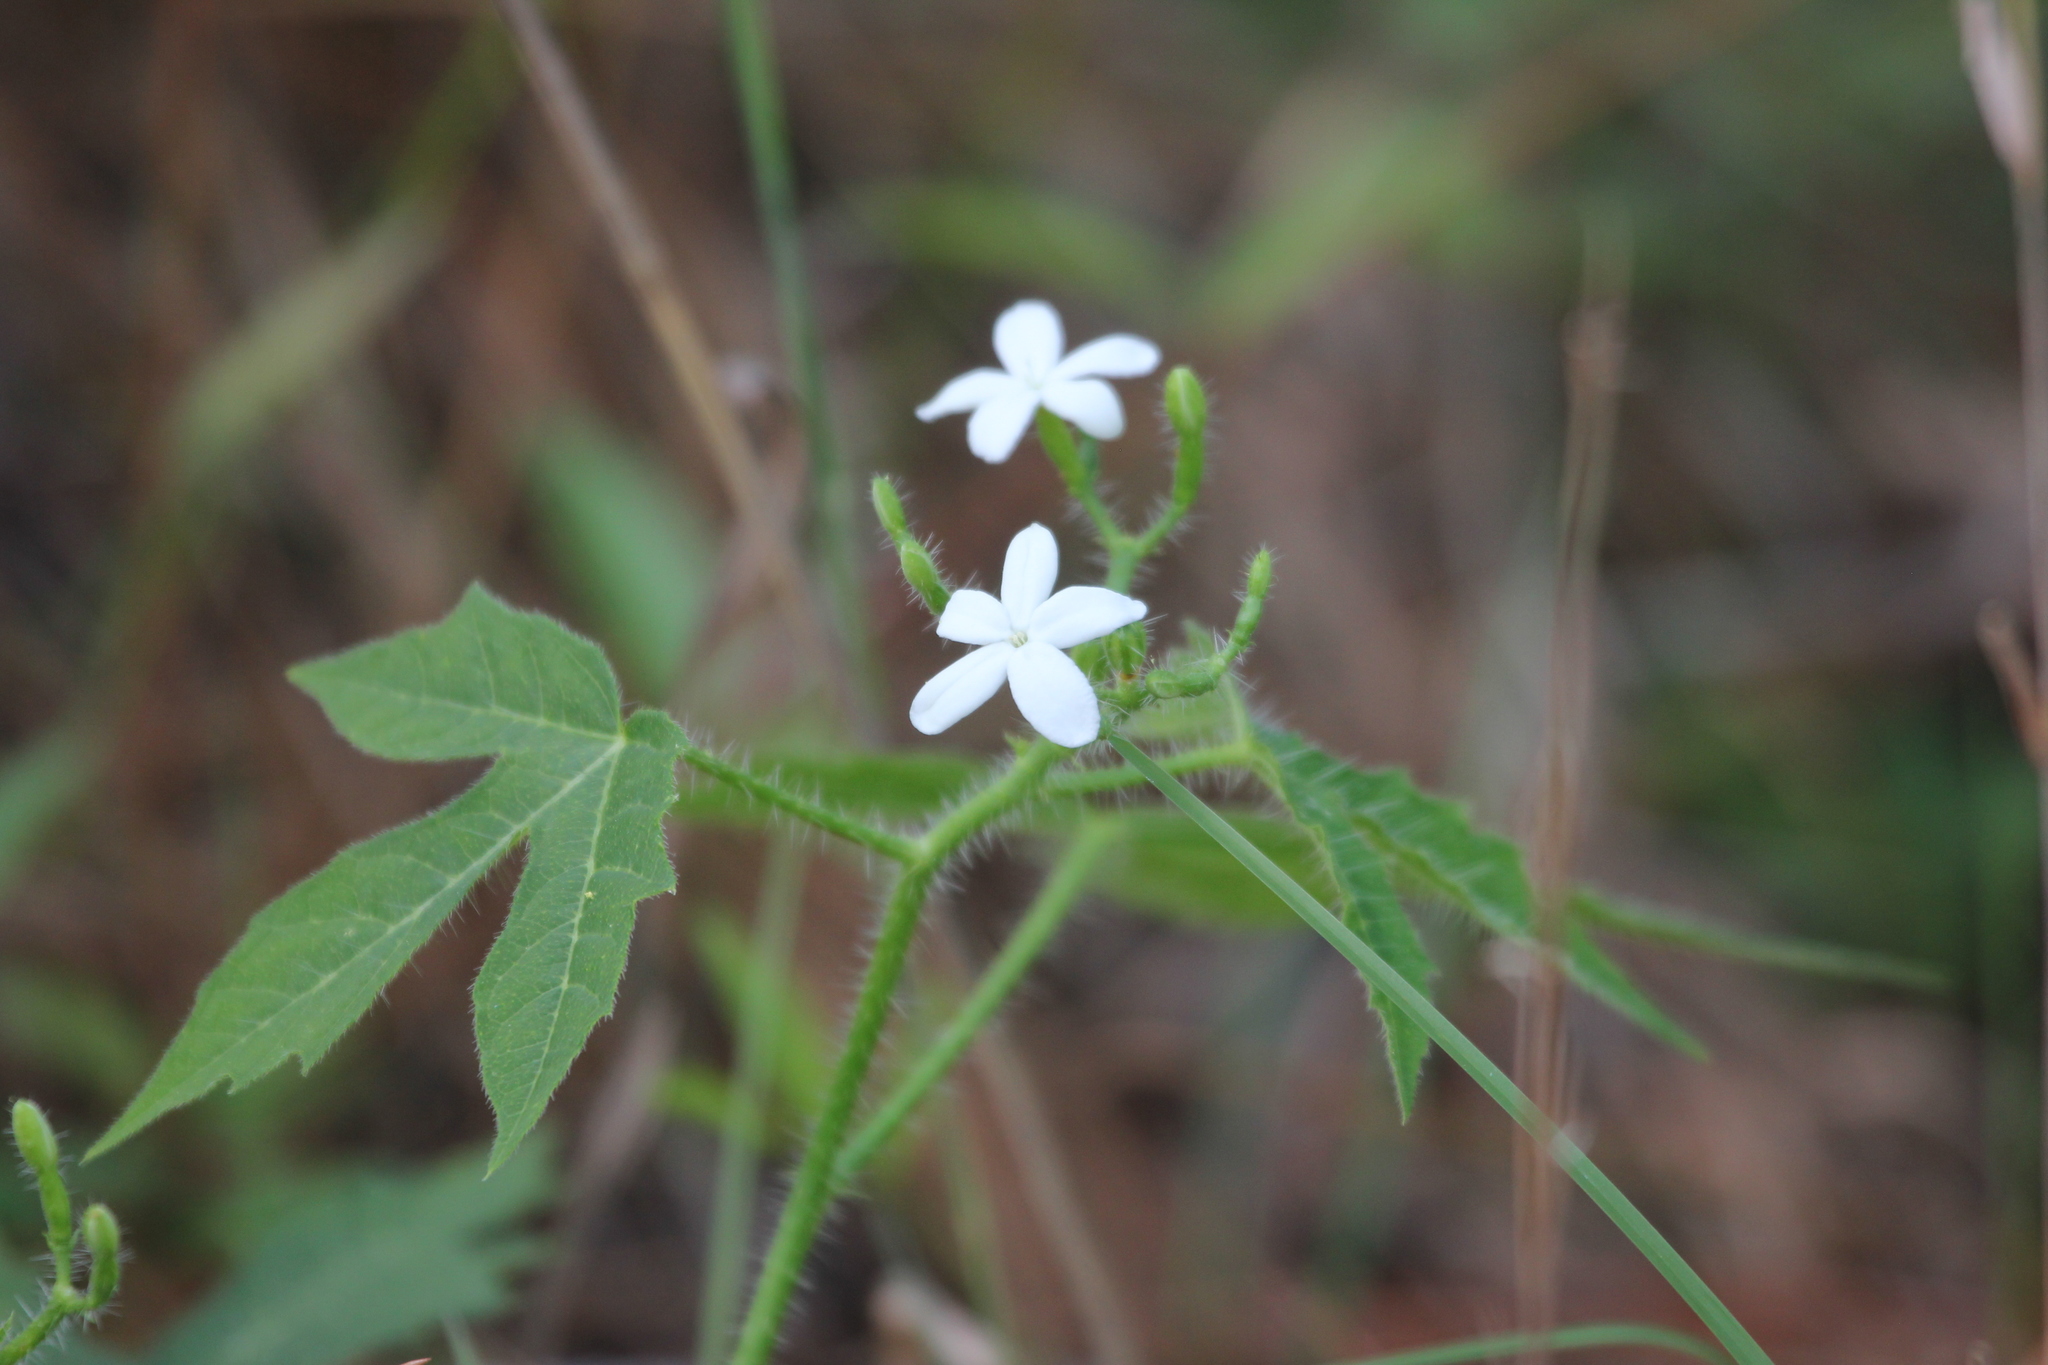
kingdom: Plantae
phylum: Tracheophyta
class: Magnoliopsida
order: Malpighiales
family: Euphorbiaceae
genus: Cnidoscolus
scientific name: Cnidoscolus stimulosus
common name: Bull-nettle
